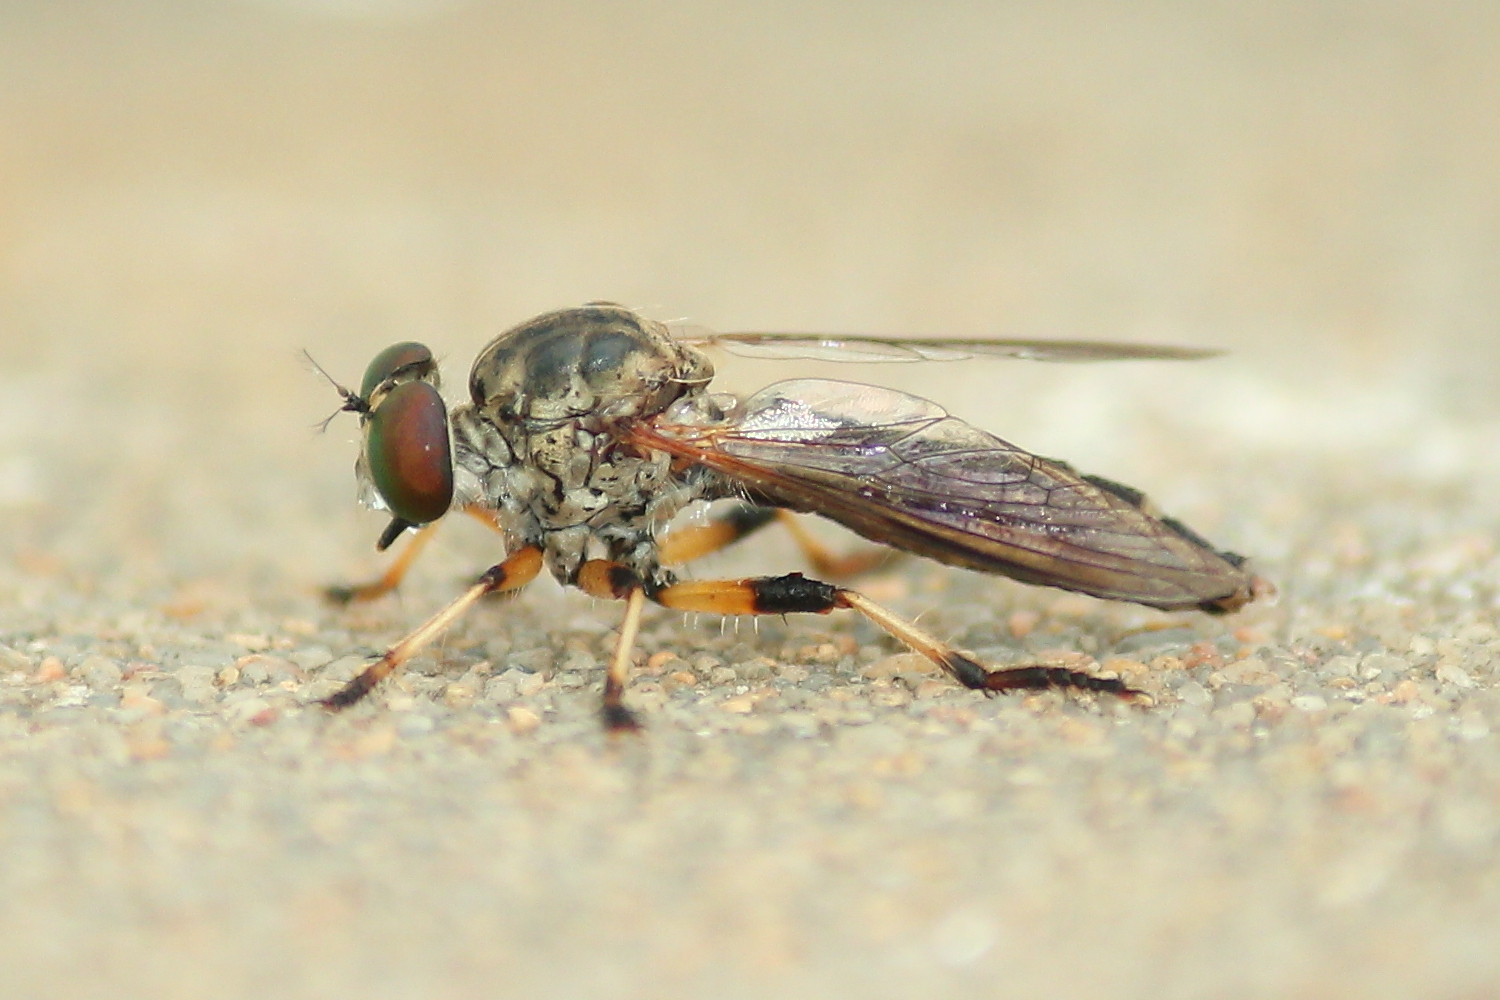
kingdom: Animalia
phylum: Arthropoda
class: Insecta
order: Diptera
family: Asilidae
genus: Ommatius
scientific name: Ommatius ouachitensis
